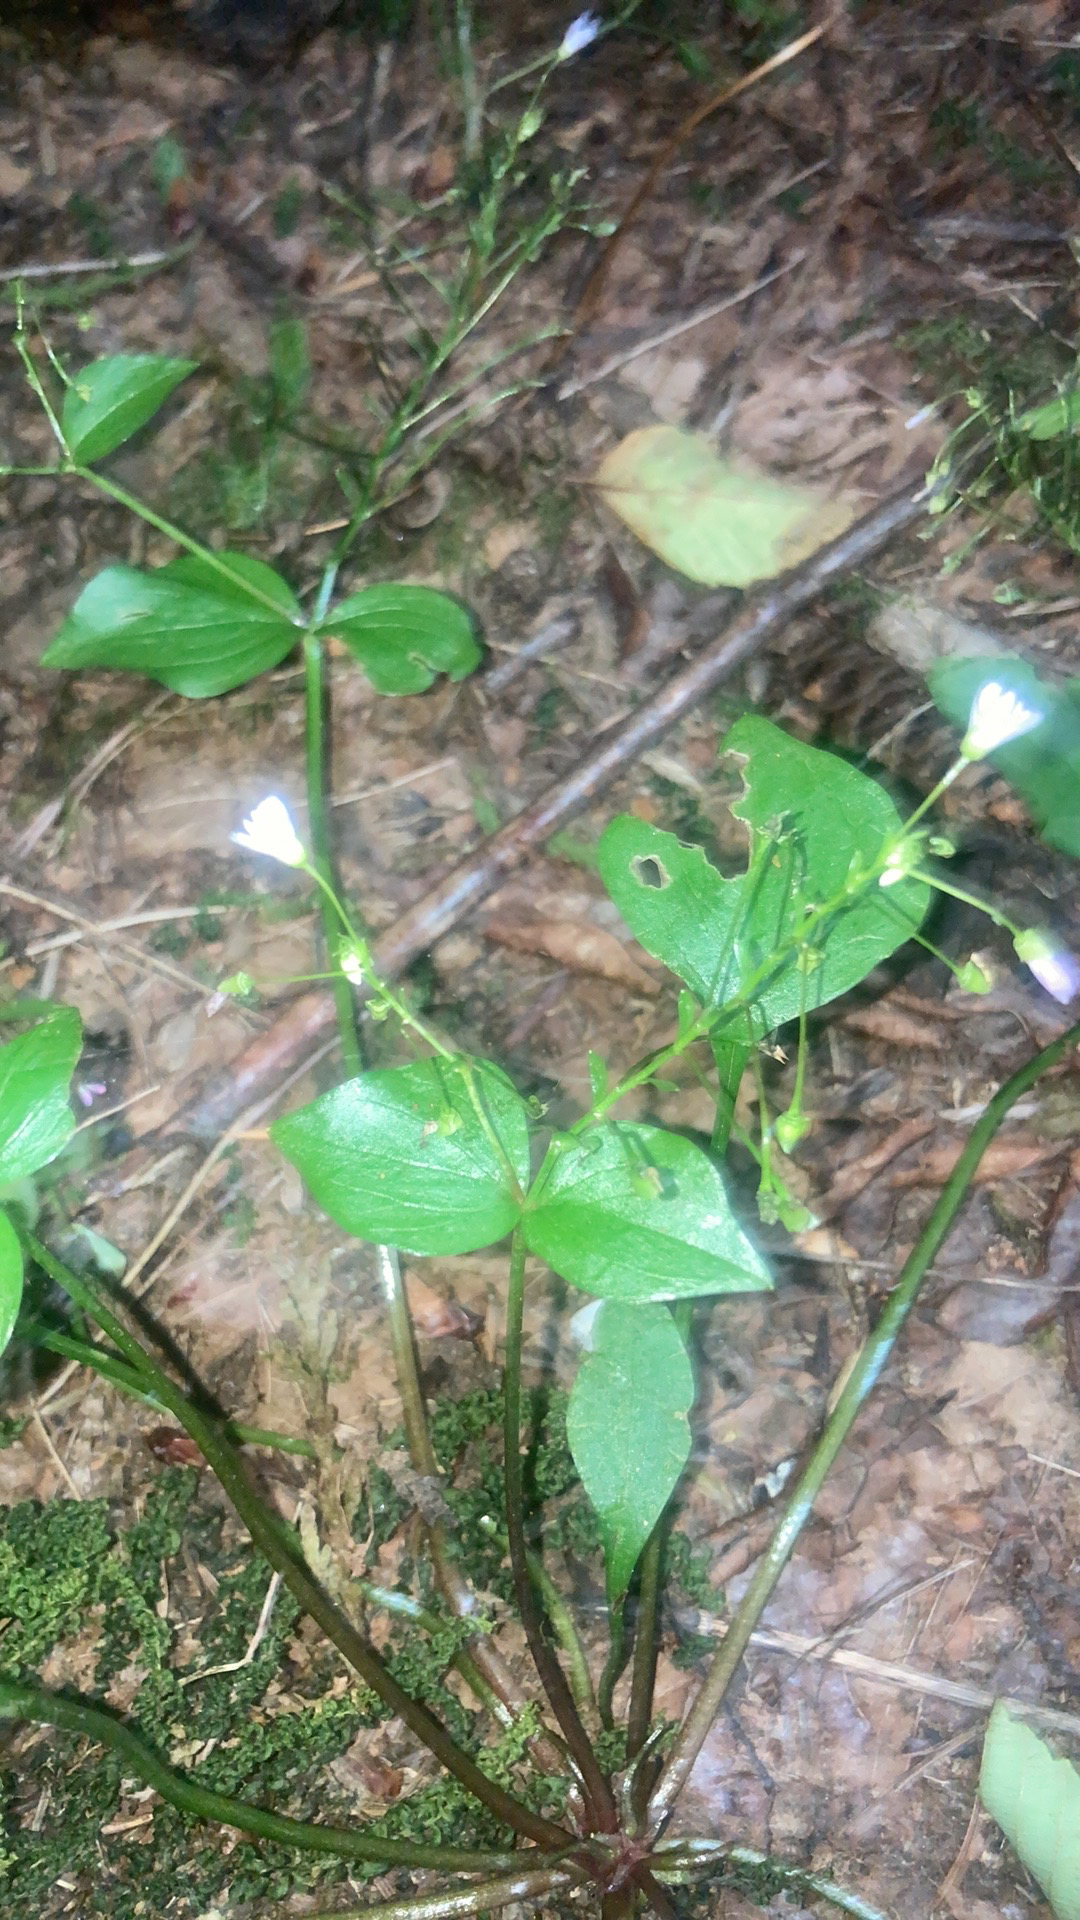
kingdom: Plantae
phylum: Tracheophyta
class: Magnoliopsida
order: Caryophyllales
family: Montiaceae
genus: Claytonia
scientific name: Claytonia sibirica
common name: Pink purslane
